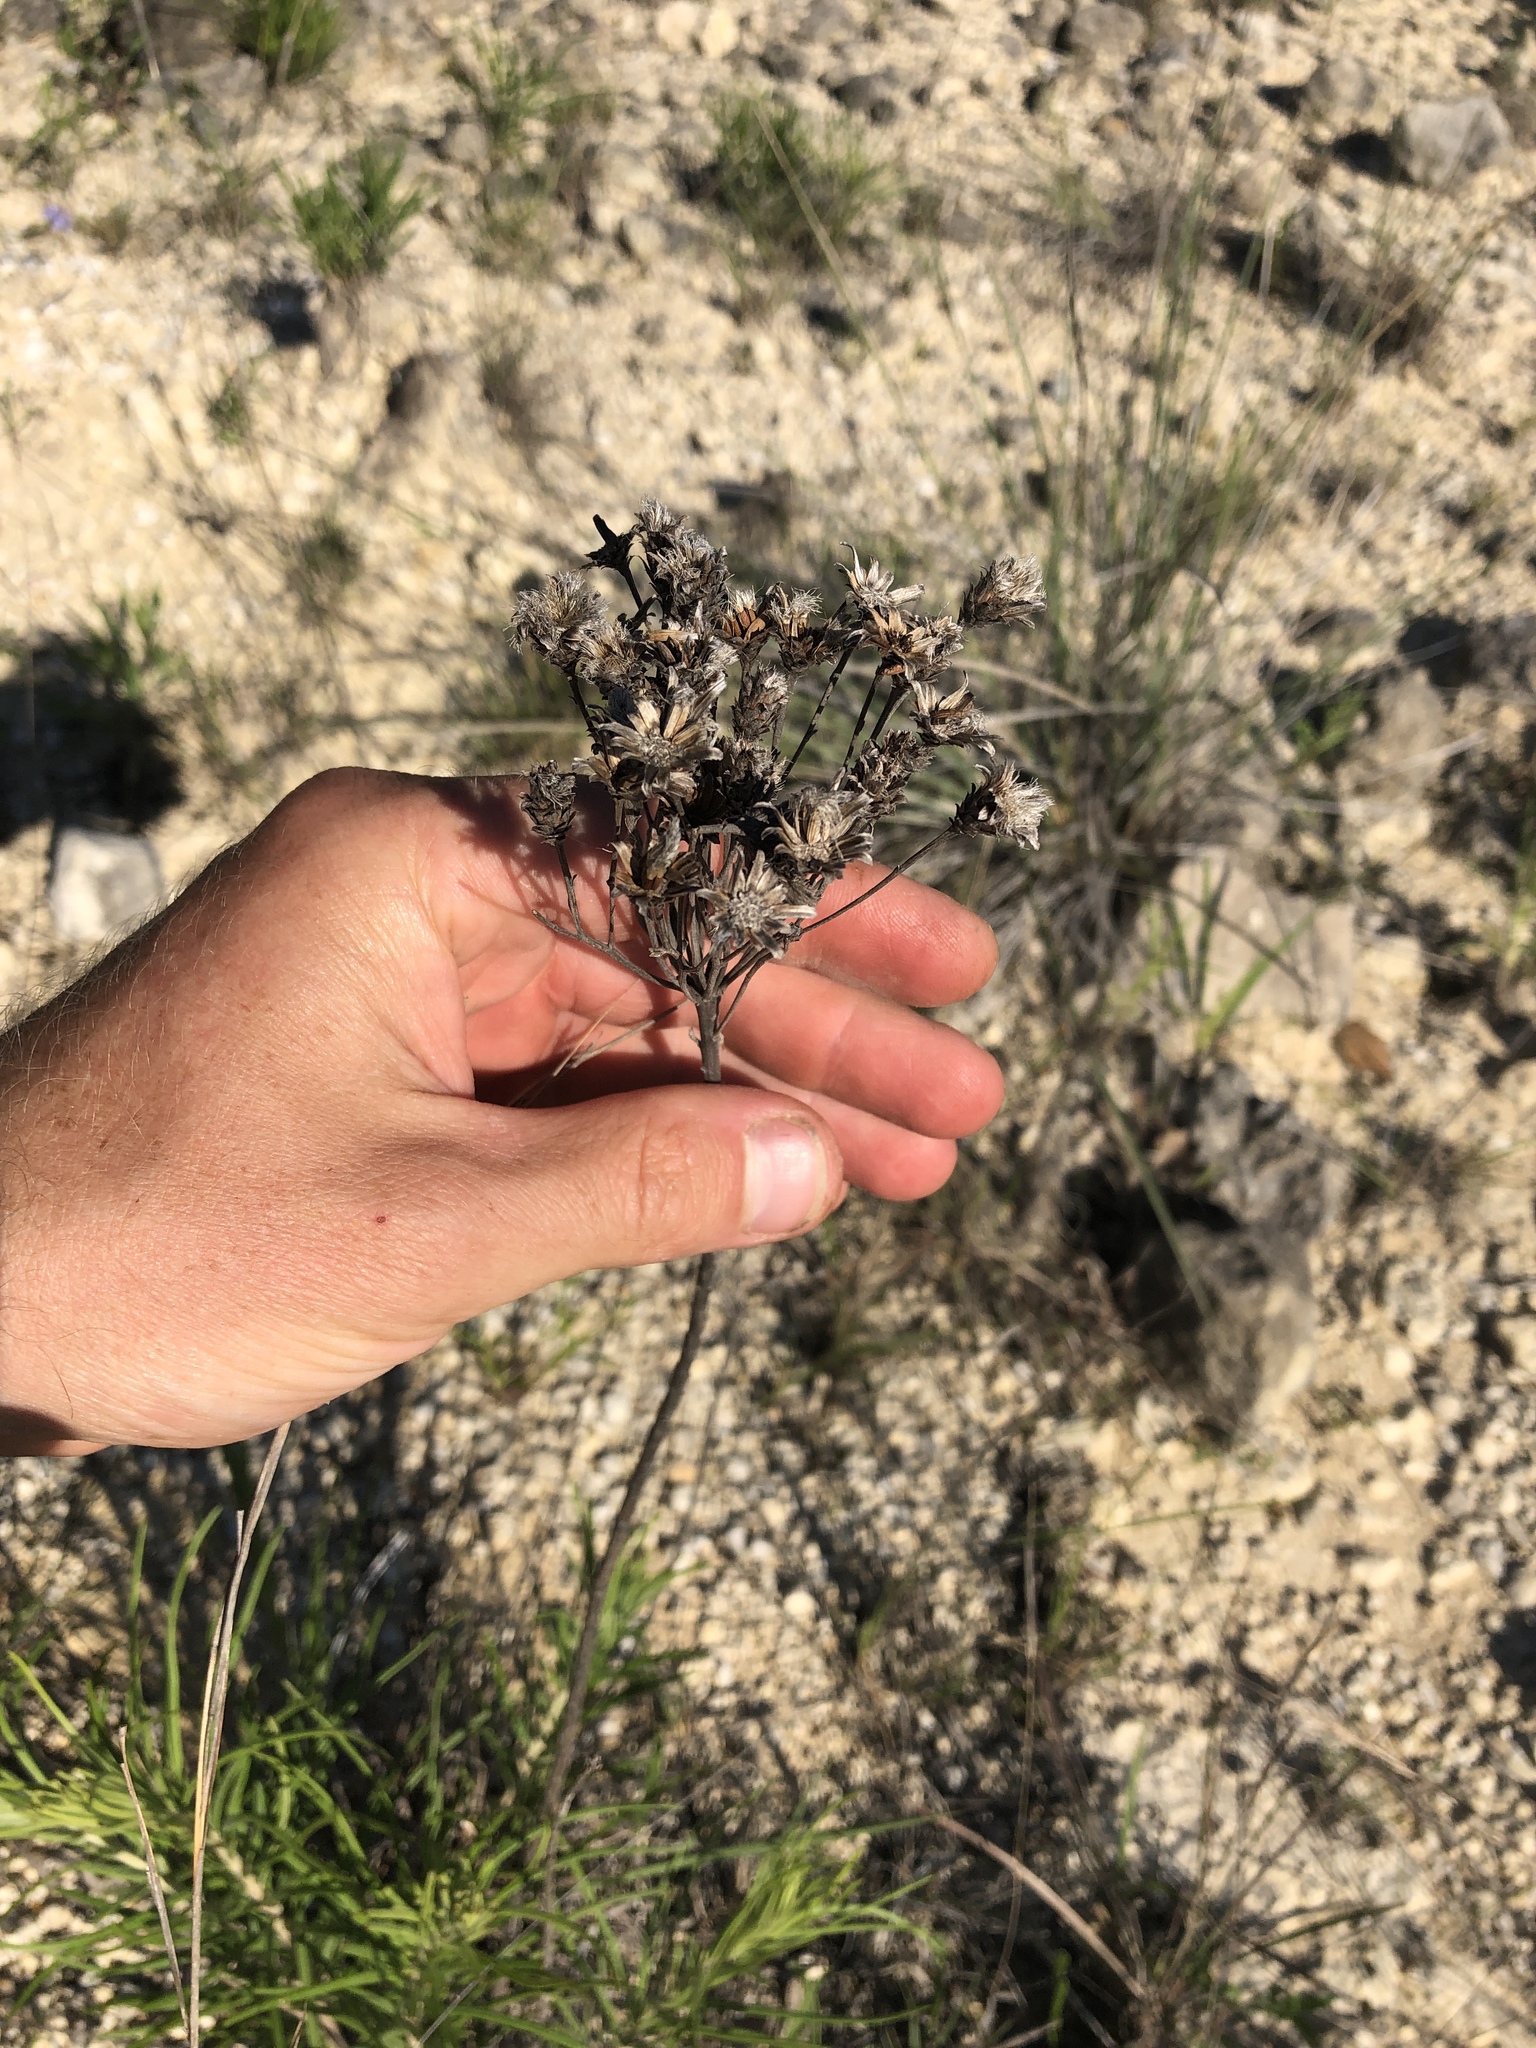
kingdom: Plantae
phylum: Tracheophyta
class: Magnoliopsida
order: Asterales
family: Asteraceae
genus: Vernonia
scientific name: Vernonia lindheimeri
